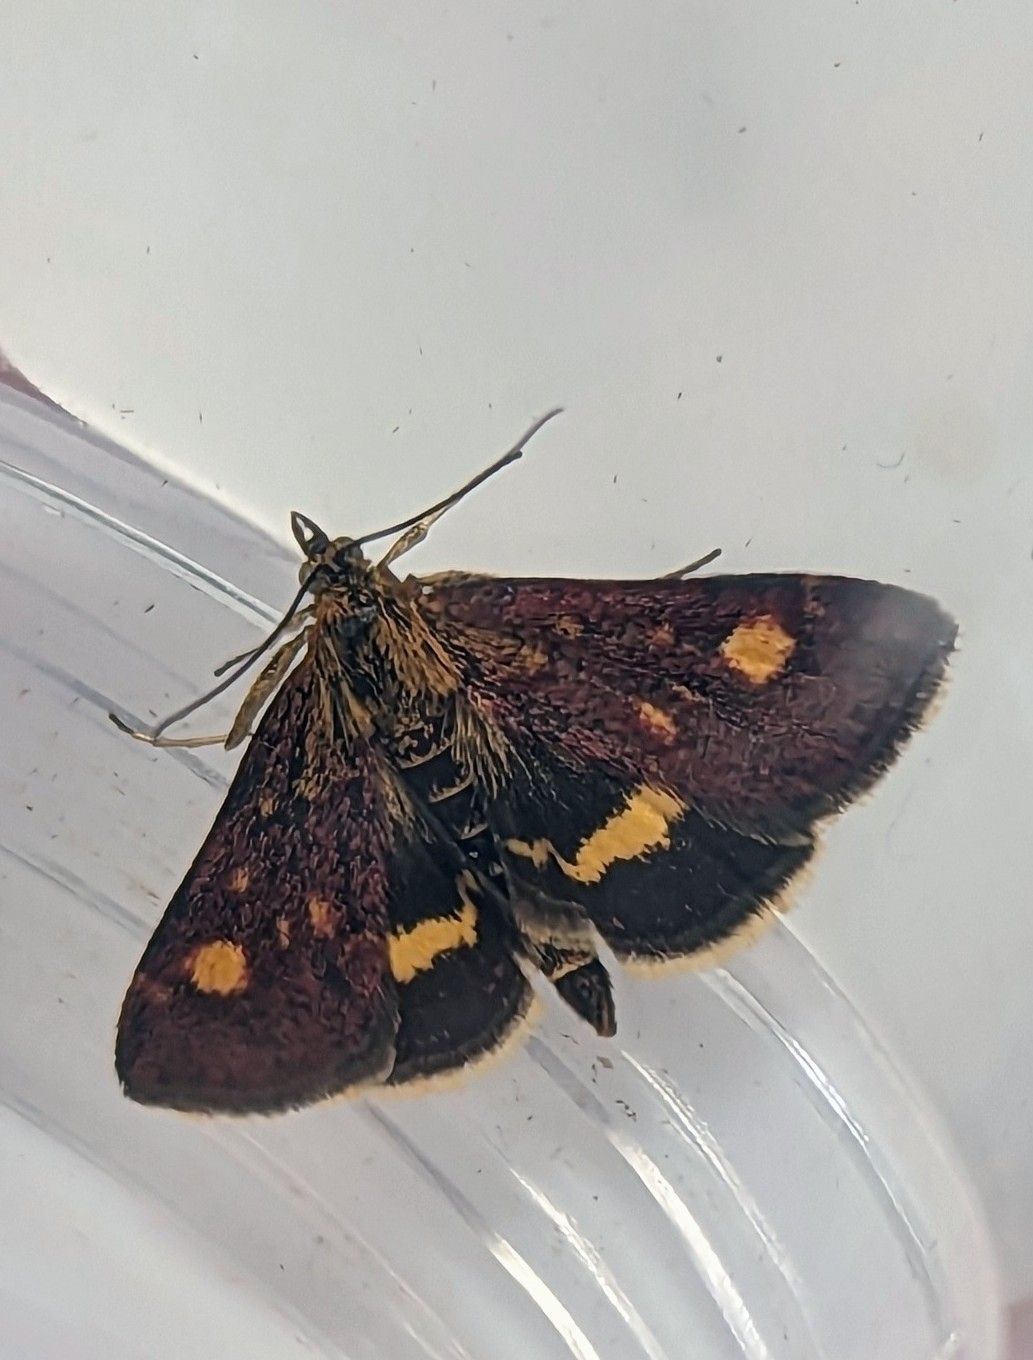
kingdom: Animalia
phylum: Arthropoda
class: Insecta
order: Lepidoptera
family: Crambidae
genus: Pyrausta
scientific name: Pyrausta aurata
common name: Small purple & gold
